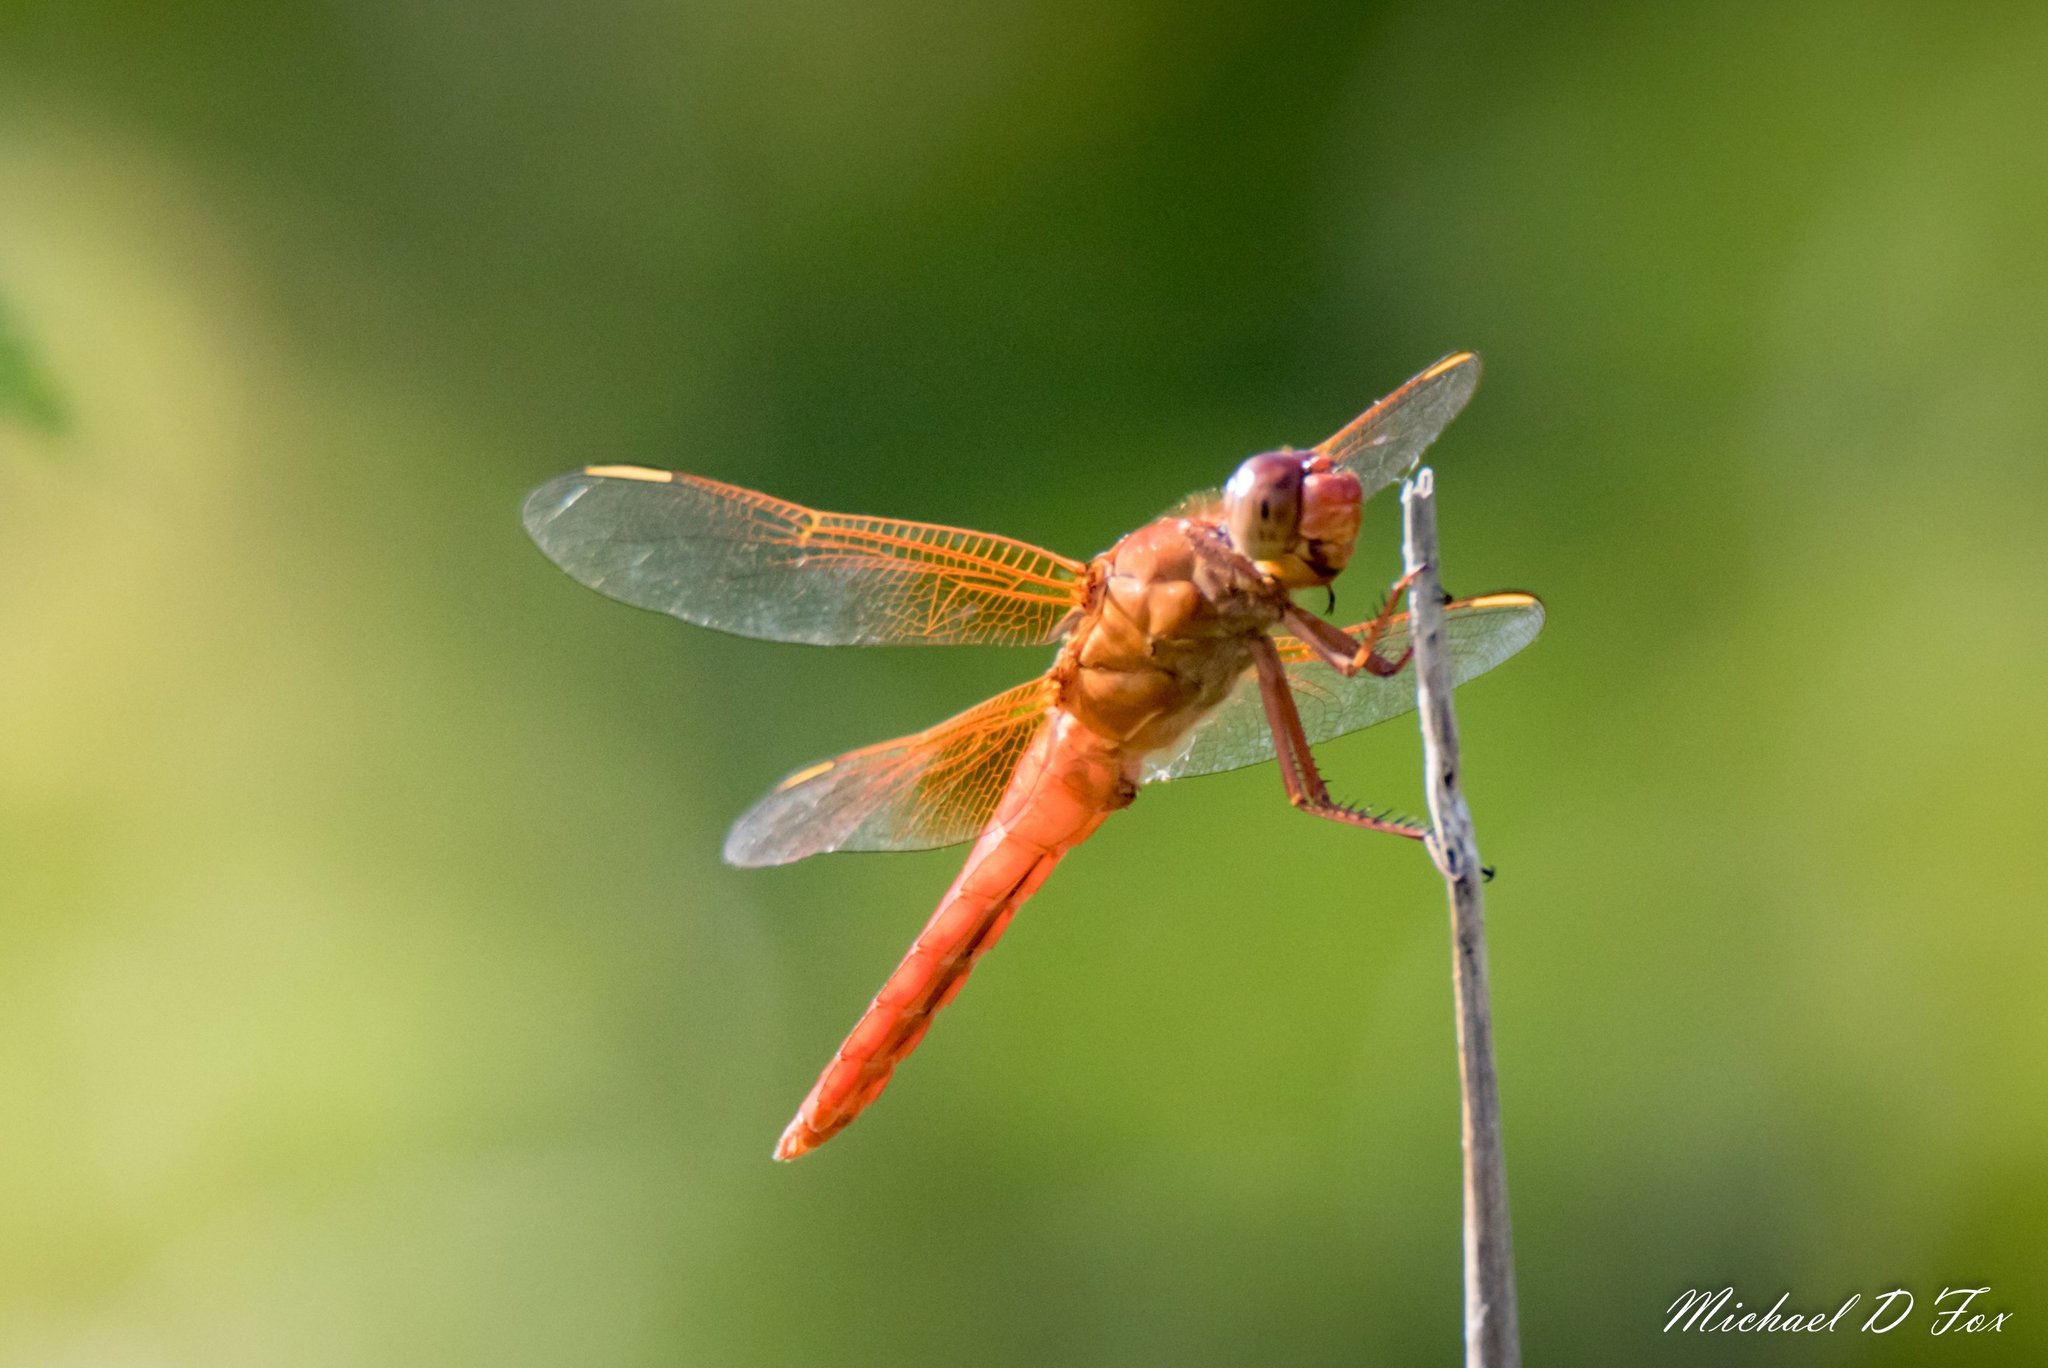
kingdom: Animalia
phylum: Arthropoda
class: Insecta
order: Odonata
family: Libellulidae
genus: Libellula
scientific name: Libellula croceipennis
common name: Neon skimmer
